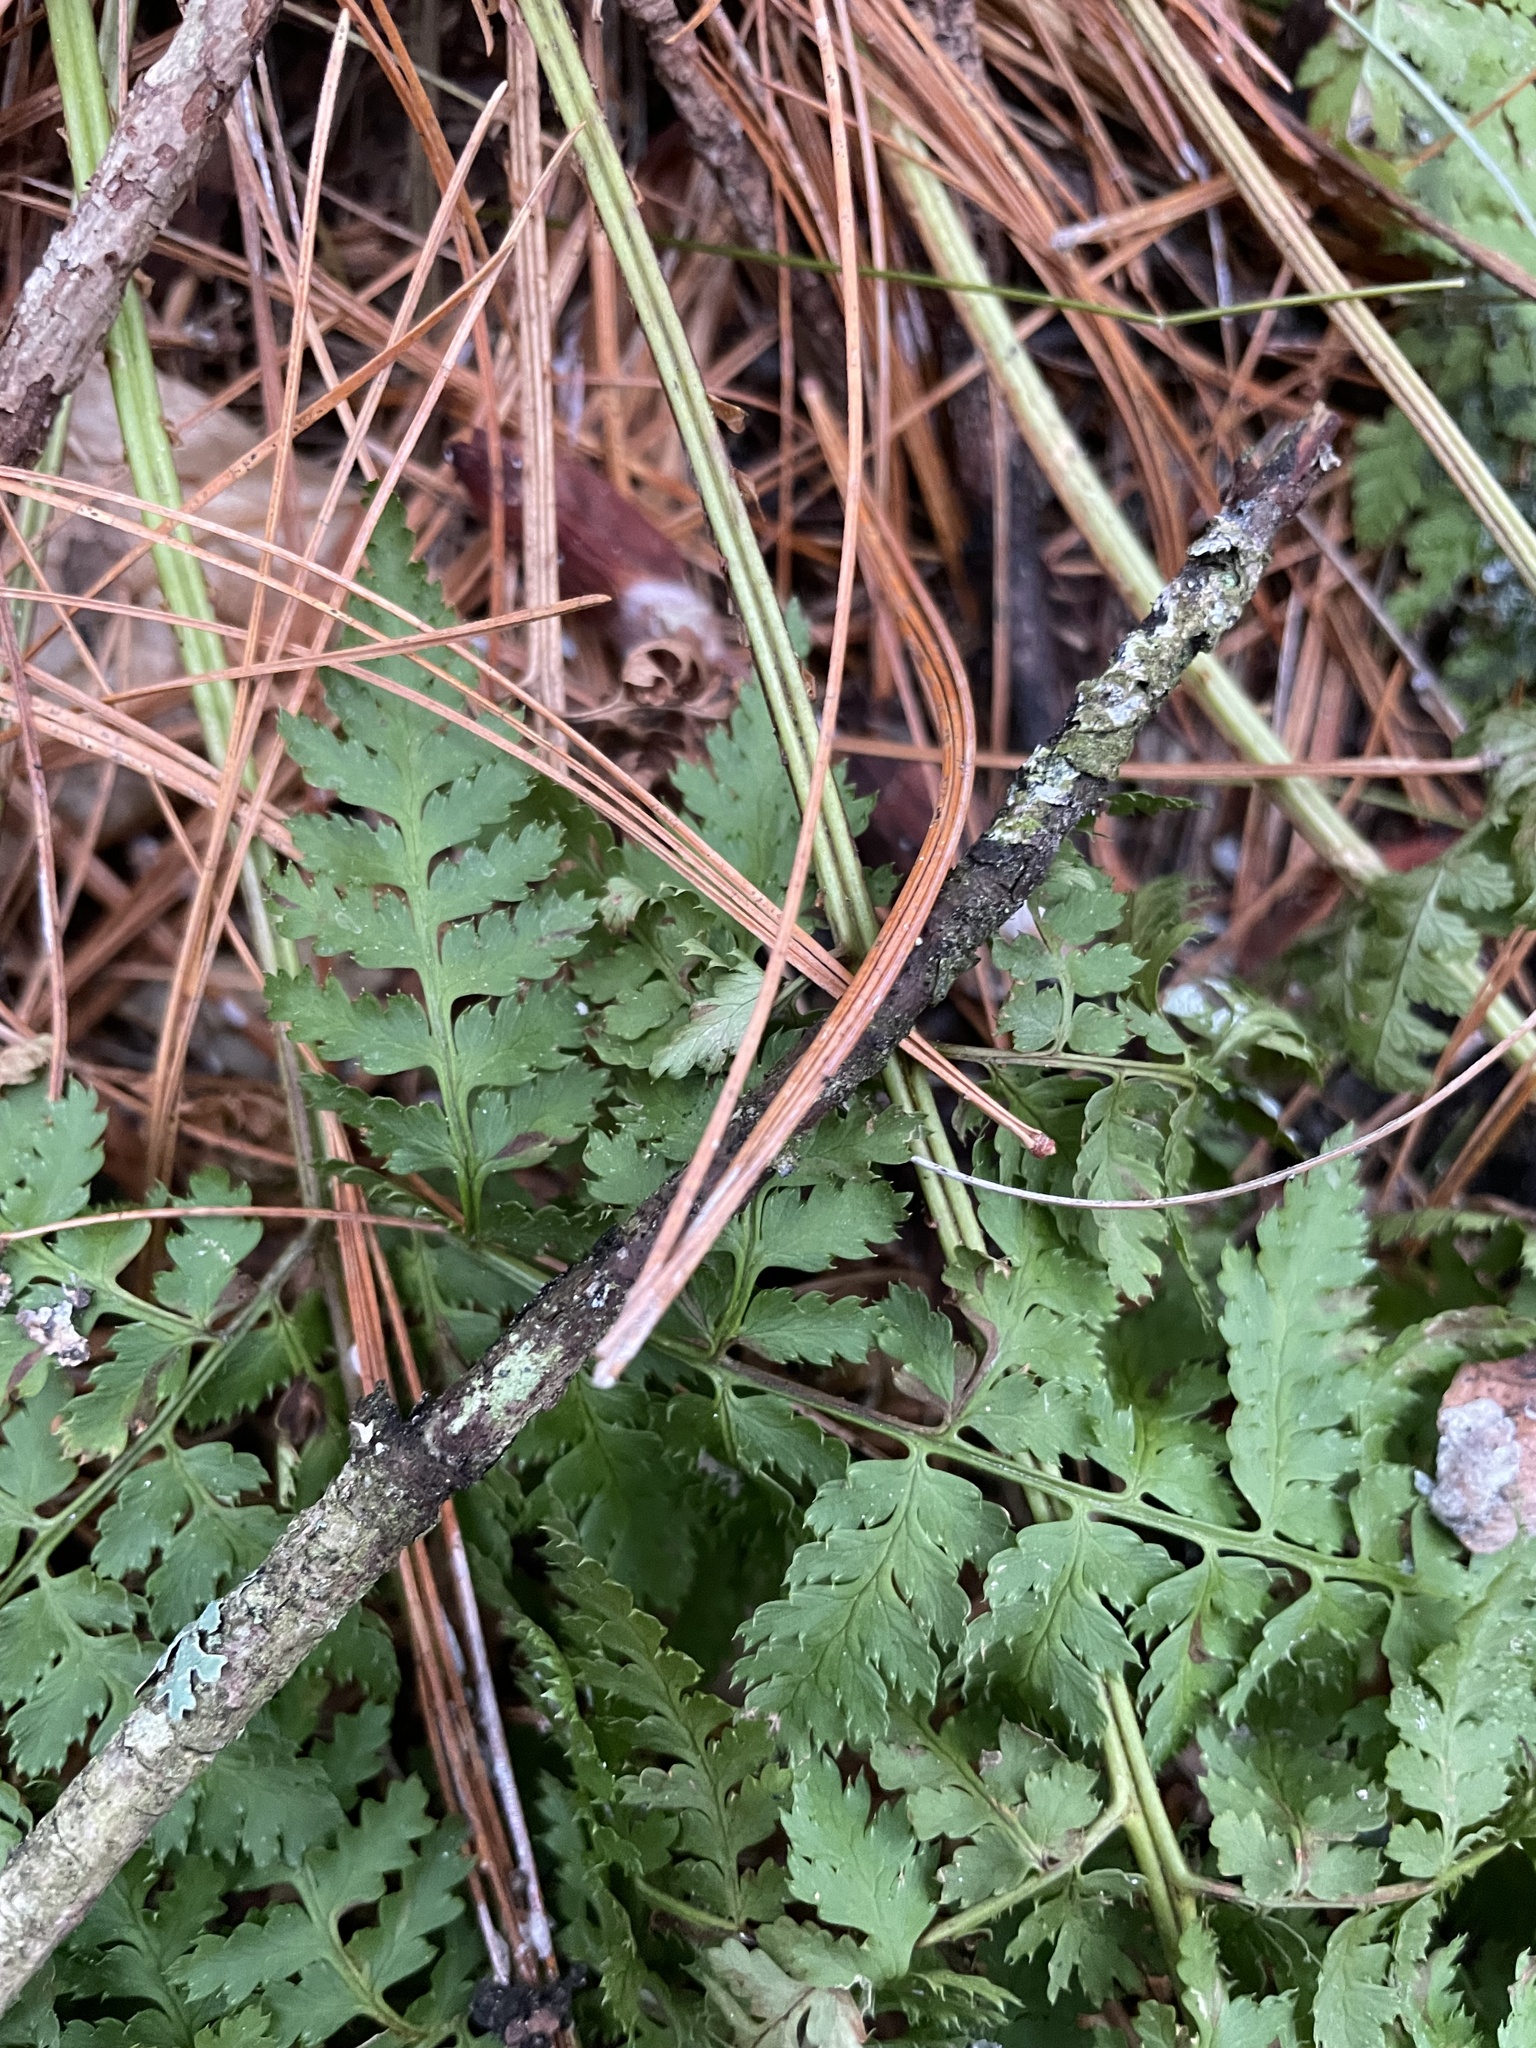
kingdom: Plantae
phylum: Tracheophyta
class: Polypodiopsida
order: Polypodiales
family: Dryopteridaceae
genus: Dryopteris
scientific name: Dryopteris intermedia
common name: Evergreen wood fern
